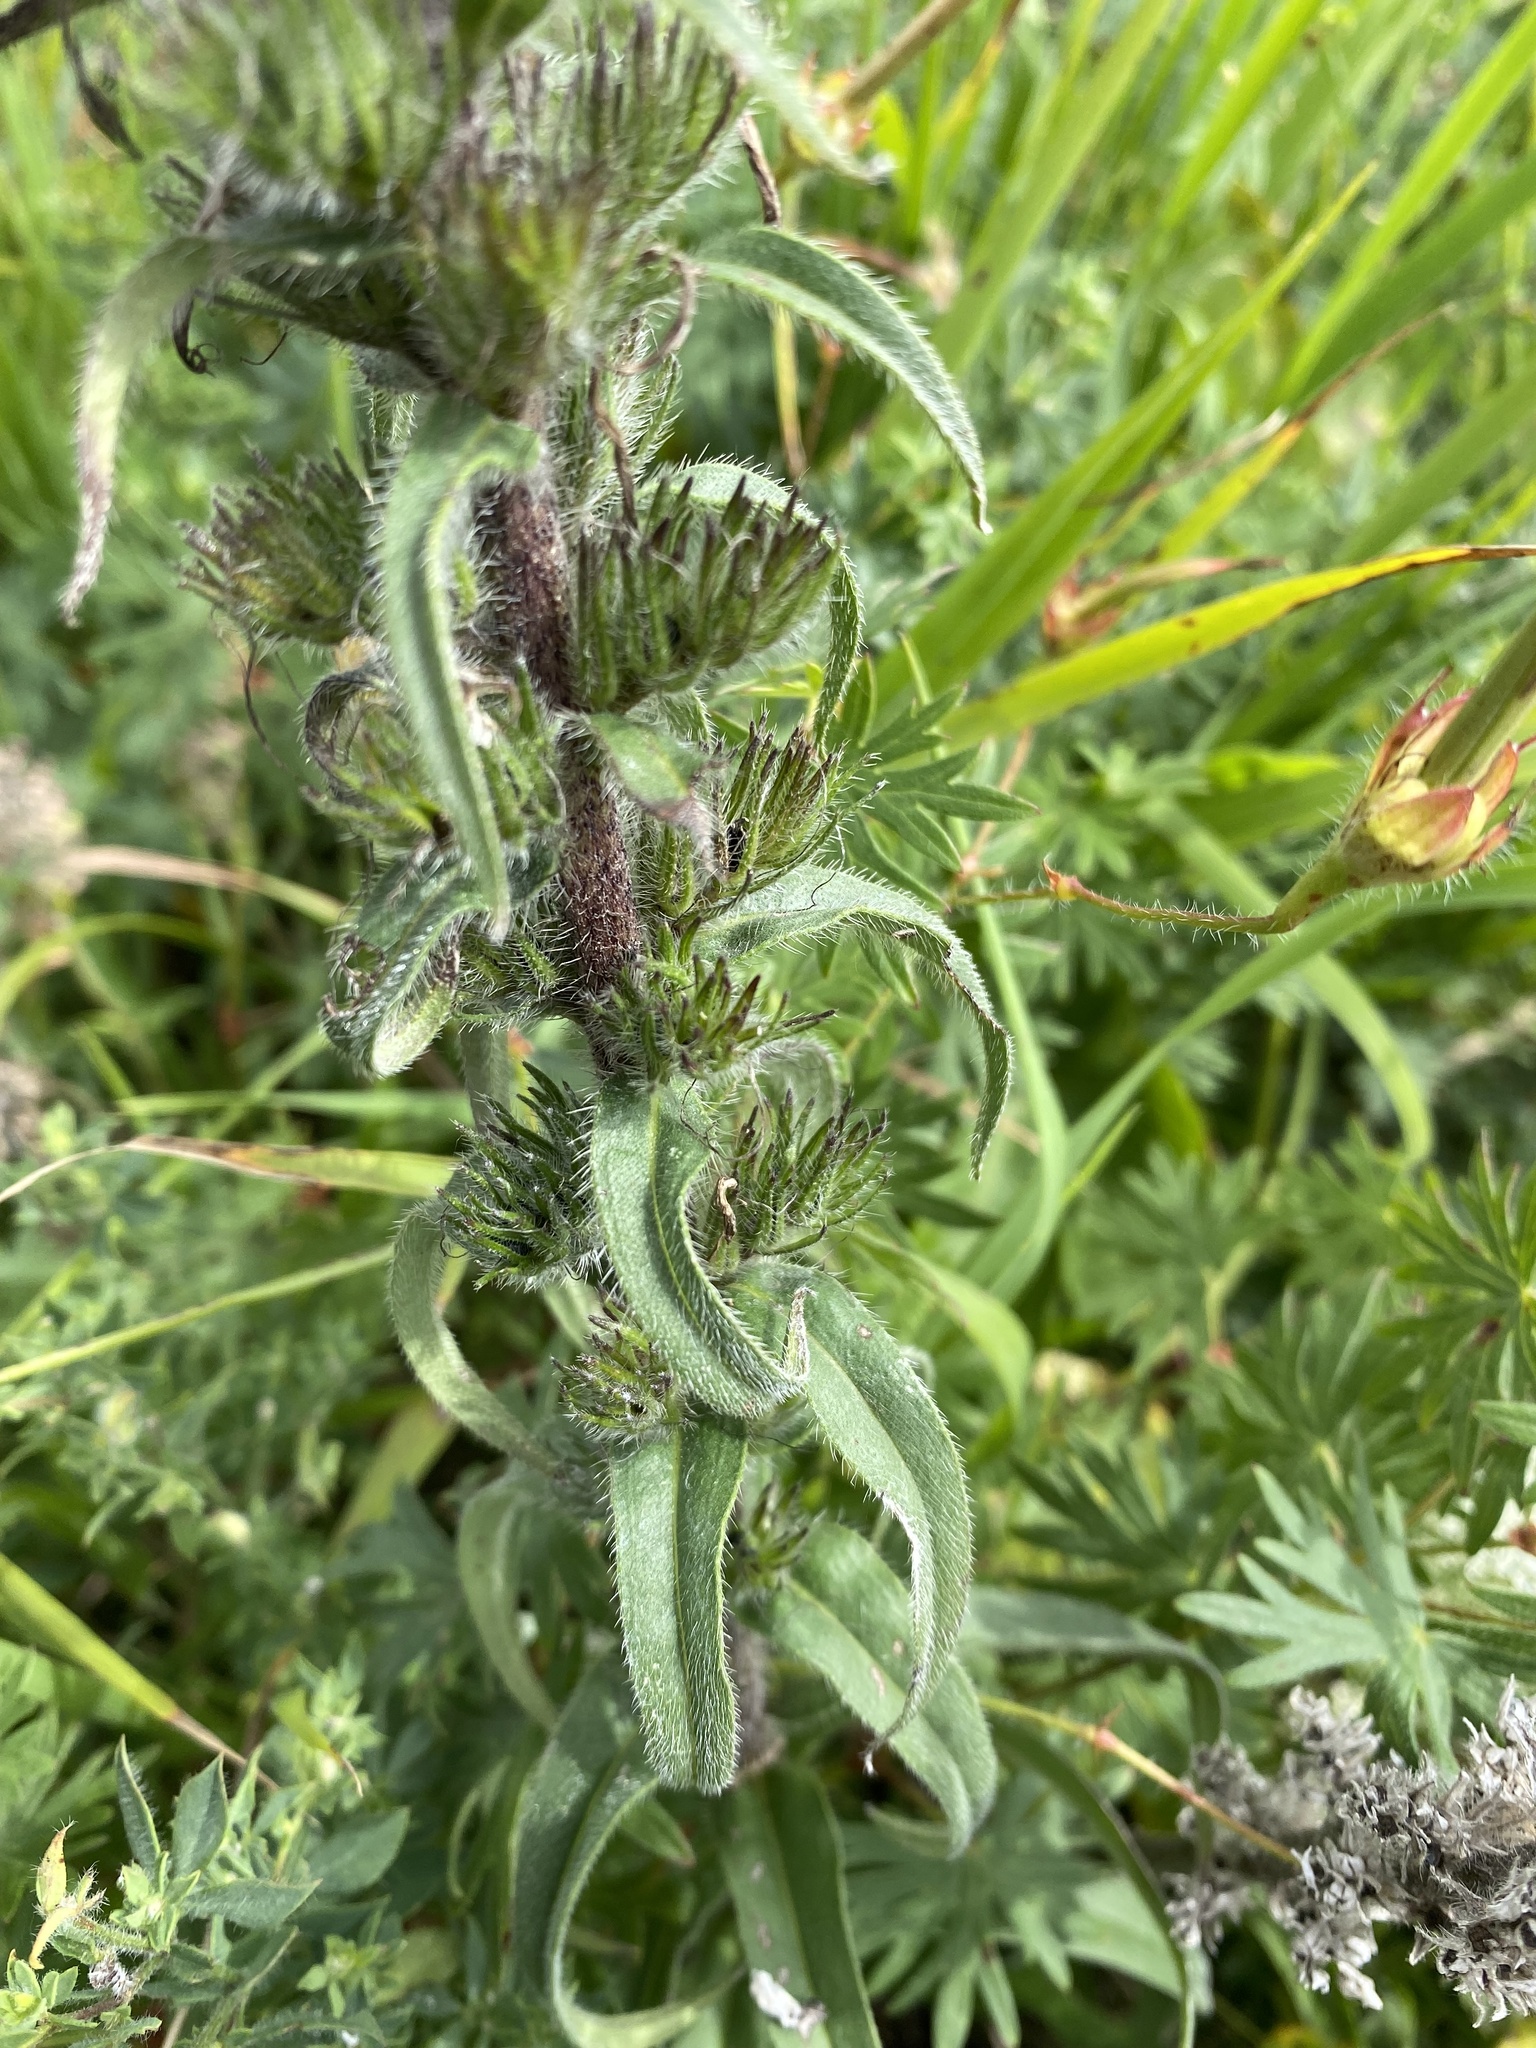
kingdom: Plantae
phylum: Tracheophyta
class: Magnoliopsida
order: Boraginales
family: Boraginaceae
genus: Pontechium
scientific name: Pontechium maculatum
